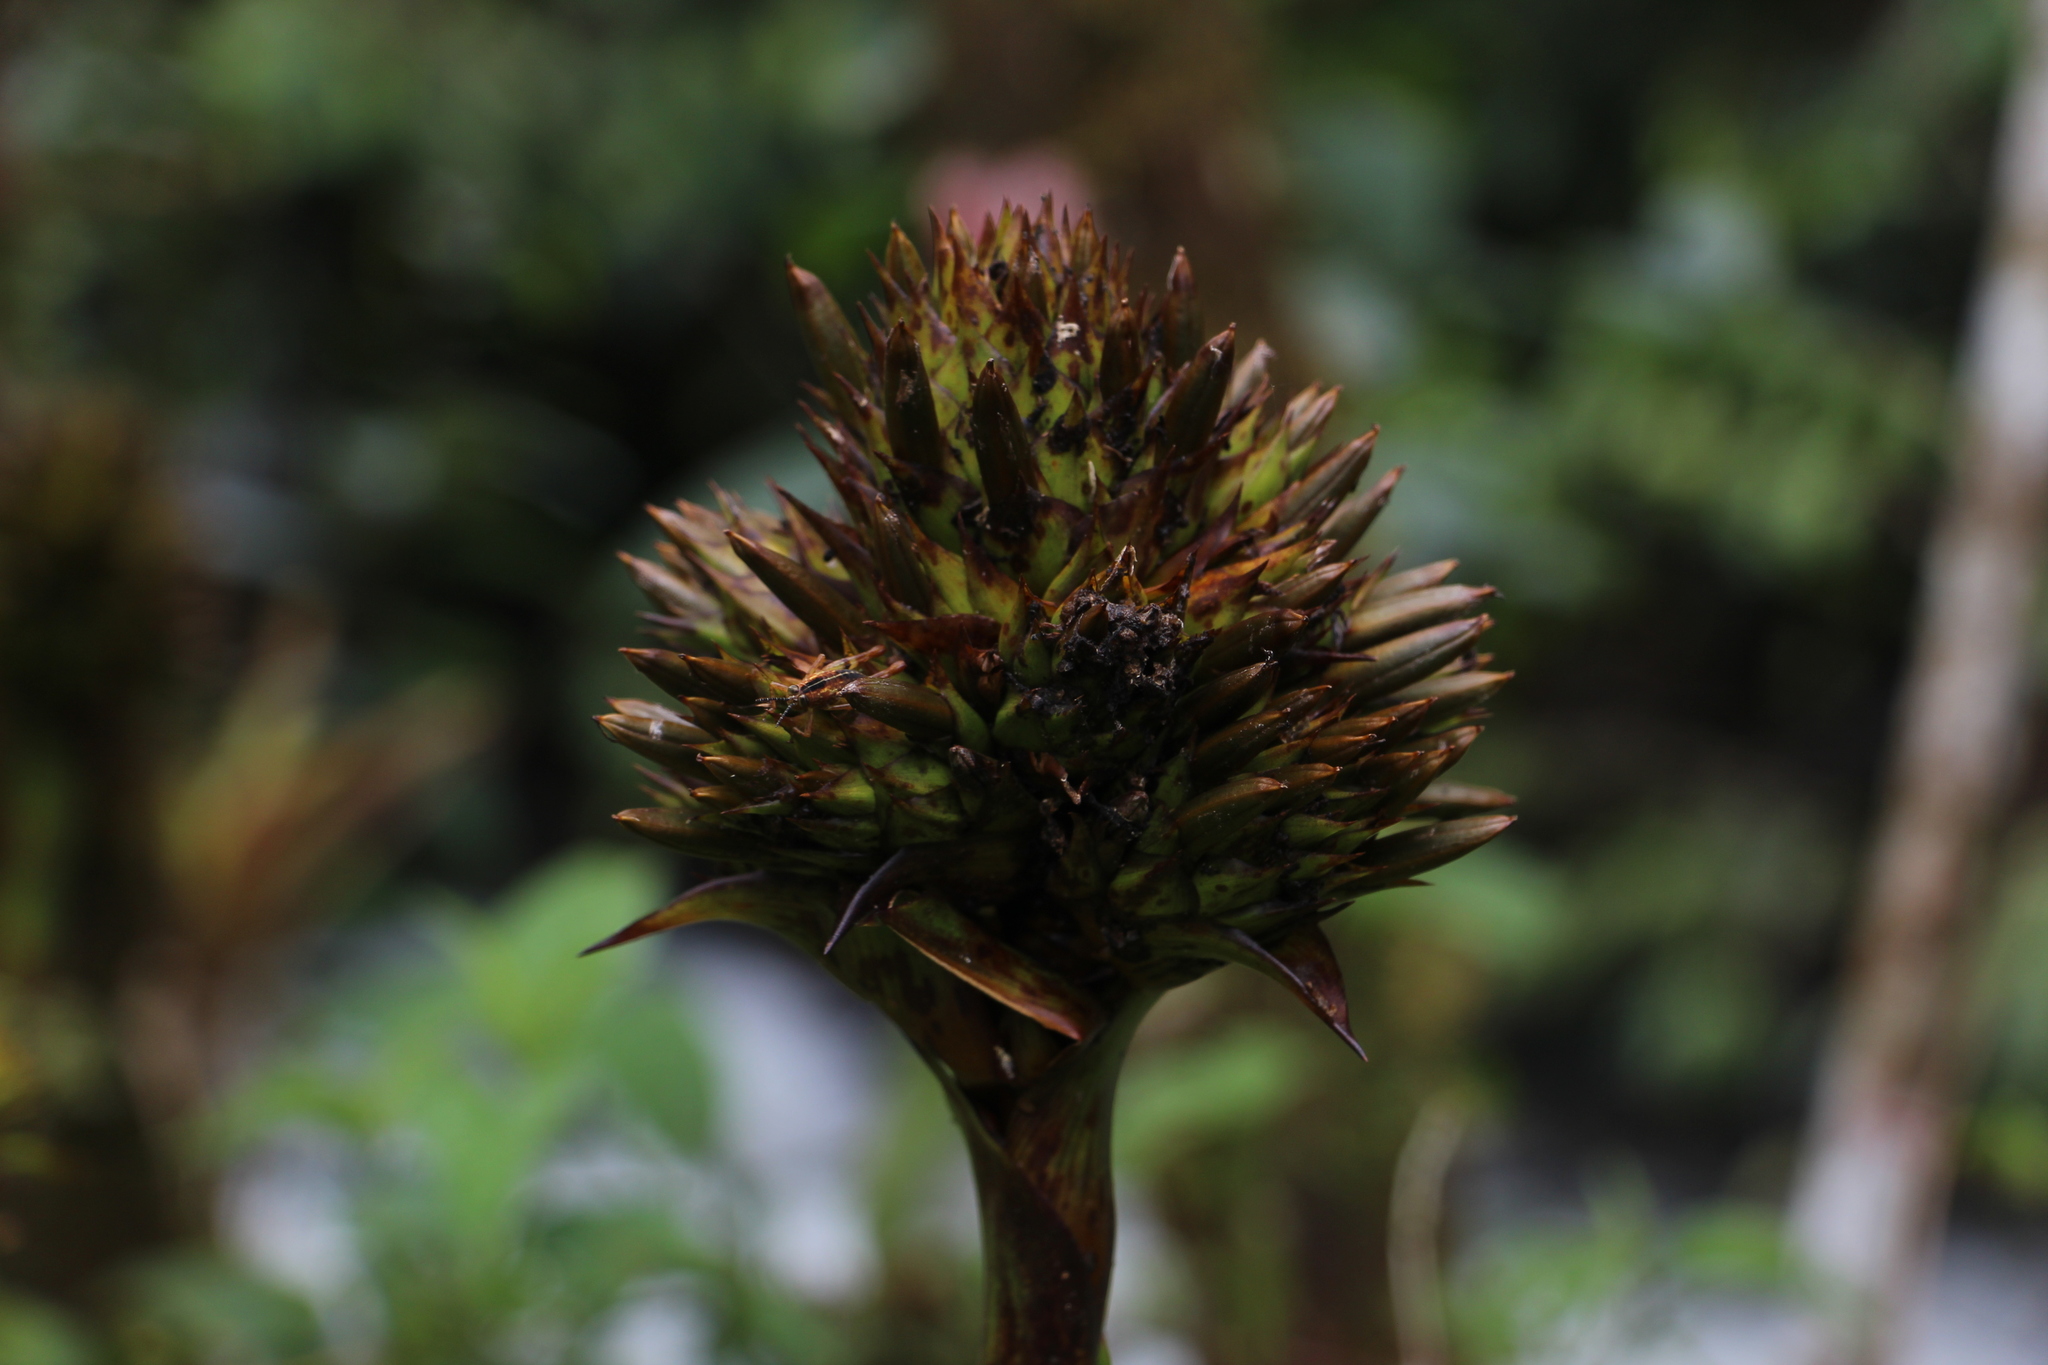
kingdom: Plantae
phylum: Tracheophyta
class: Liliopsida
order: Poales
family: Bromeliaceae
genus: Guzmania
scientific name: Guzmania triangularis
